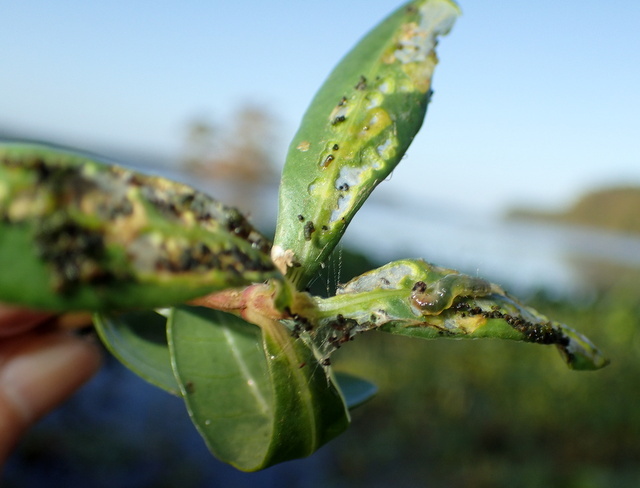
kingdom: Animalia
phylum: Arthropoda
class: Insecta
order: Coleoptera
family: Chrysomelidae
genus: Agasicles
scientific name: Agasicles hygrophila
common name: Alligatorweed flea beetle
